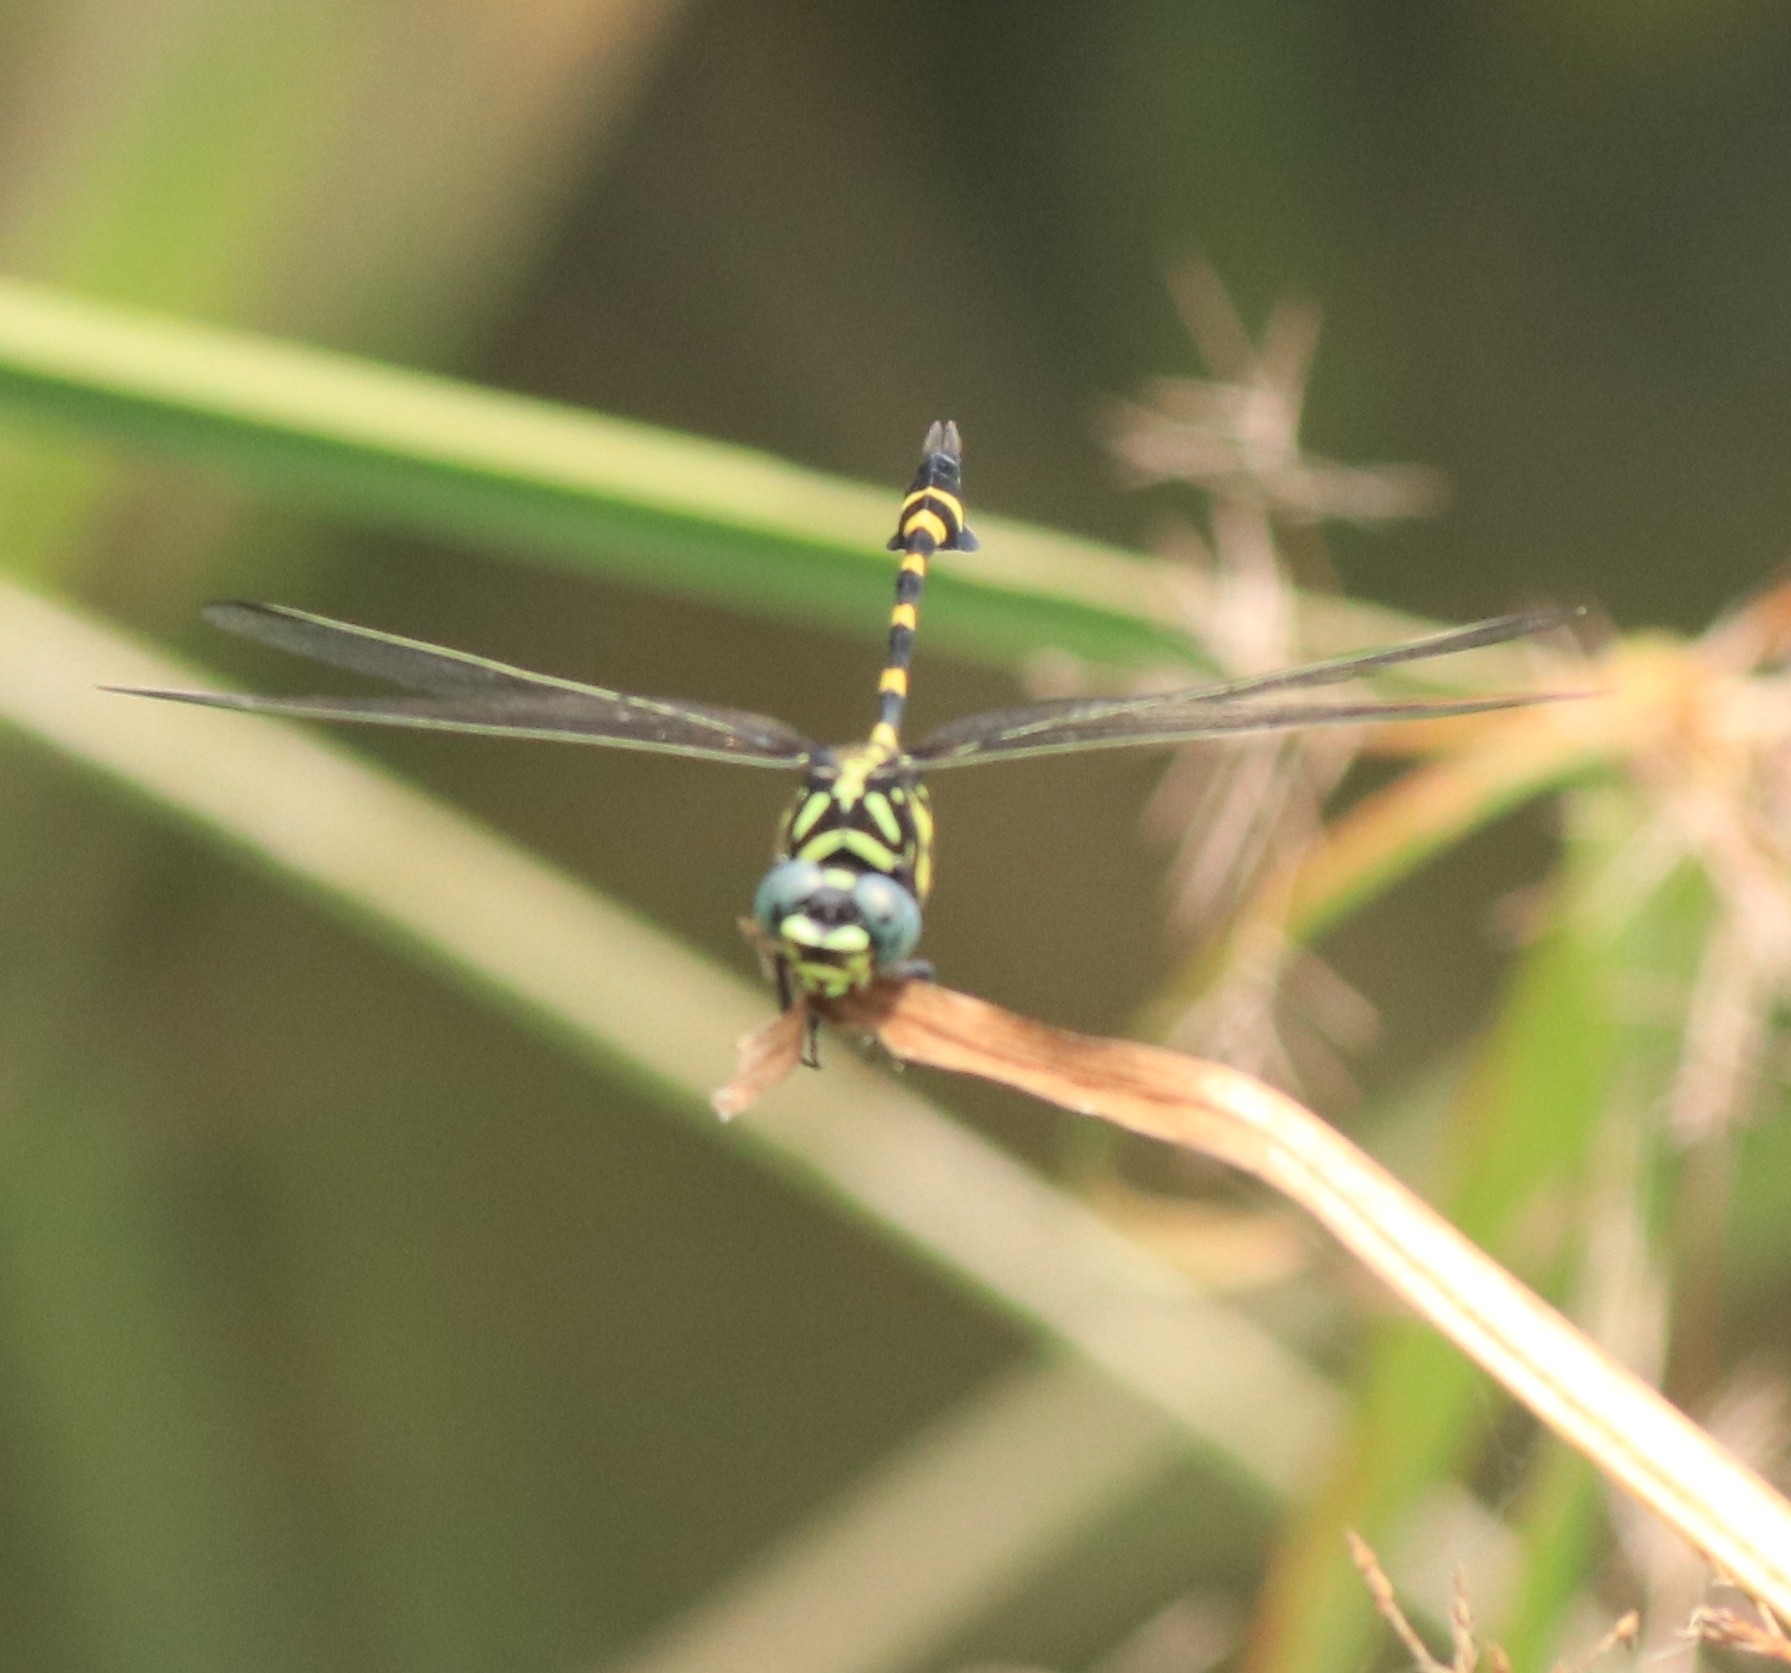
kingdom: Animalia
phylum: Arthropoda
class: Insecta
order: Odonata
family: Gomphidae
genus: Ictinogomphus
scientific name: Ictinogomphus rapax
